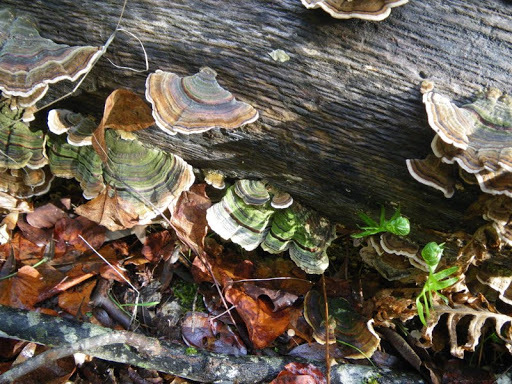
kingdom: Fungi
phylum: Basidiomycota
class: Agaricomycetes
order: Polyporales
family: Polyporaceae
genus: Trametes
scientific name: Trametes versicolor
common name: Turkeytail
